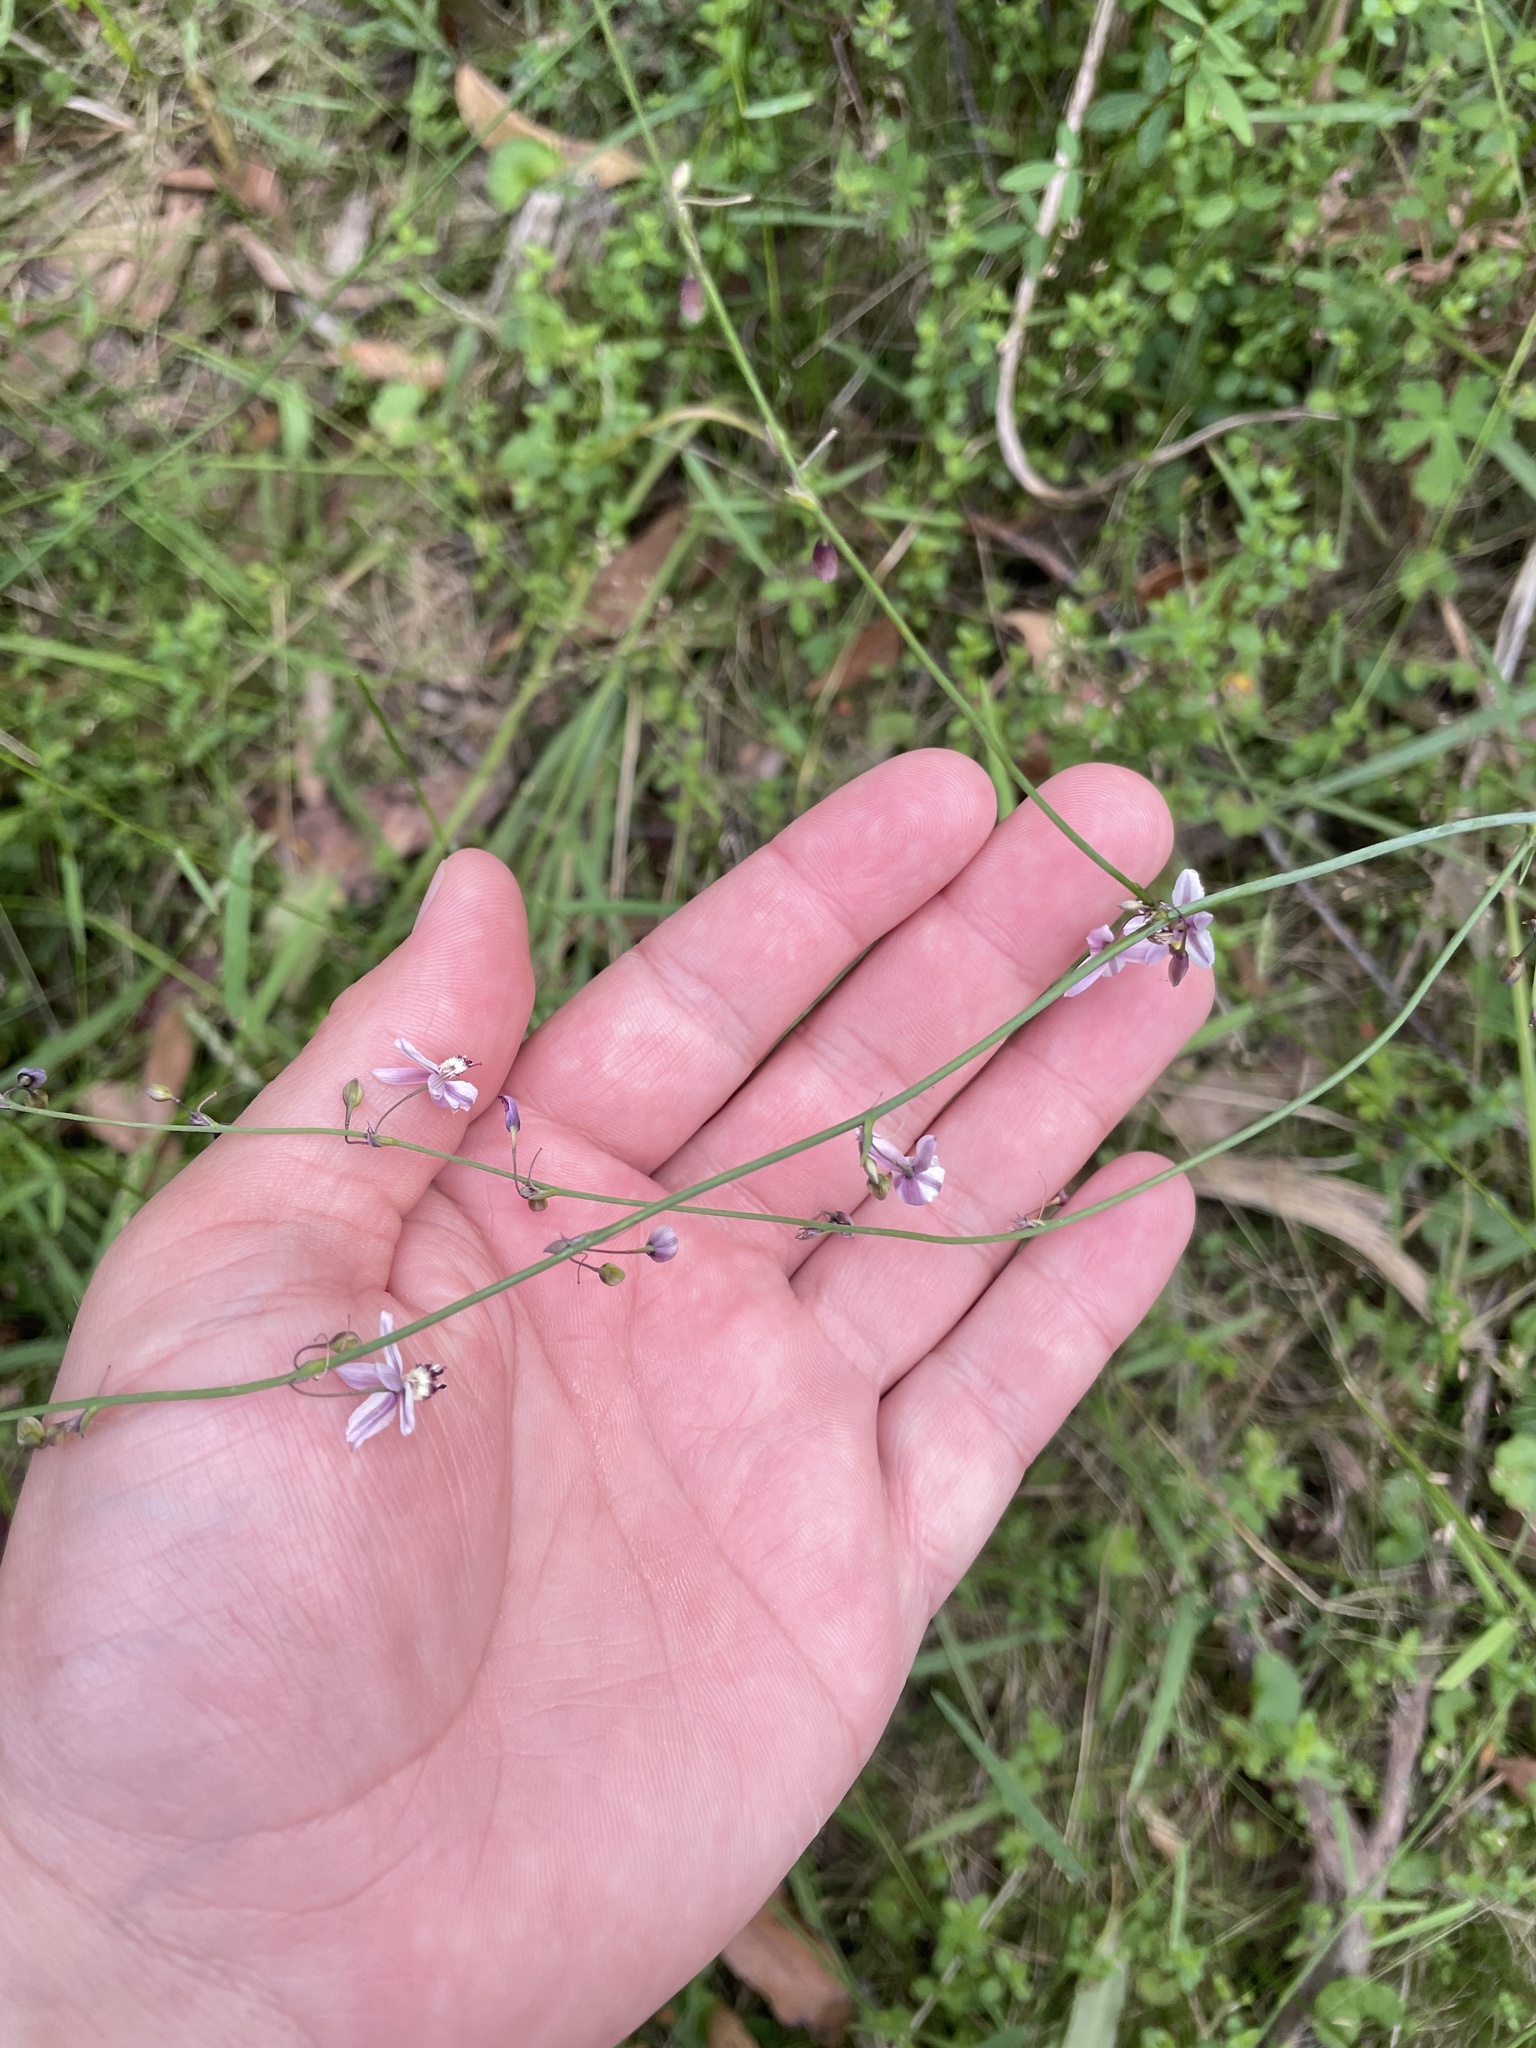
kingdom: Plantae
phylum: Tracheophyta
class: Liliopsida
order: Asparagales
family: Asparagaceae
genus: Arthropodium
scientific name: Arthropodium milleflorum
